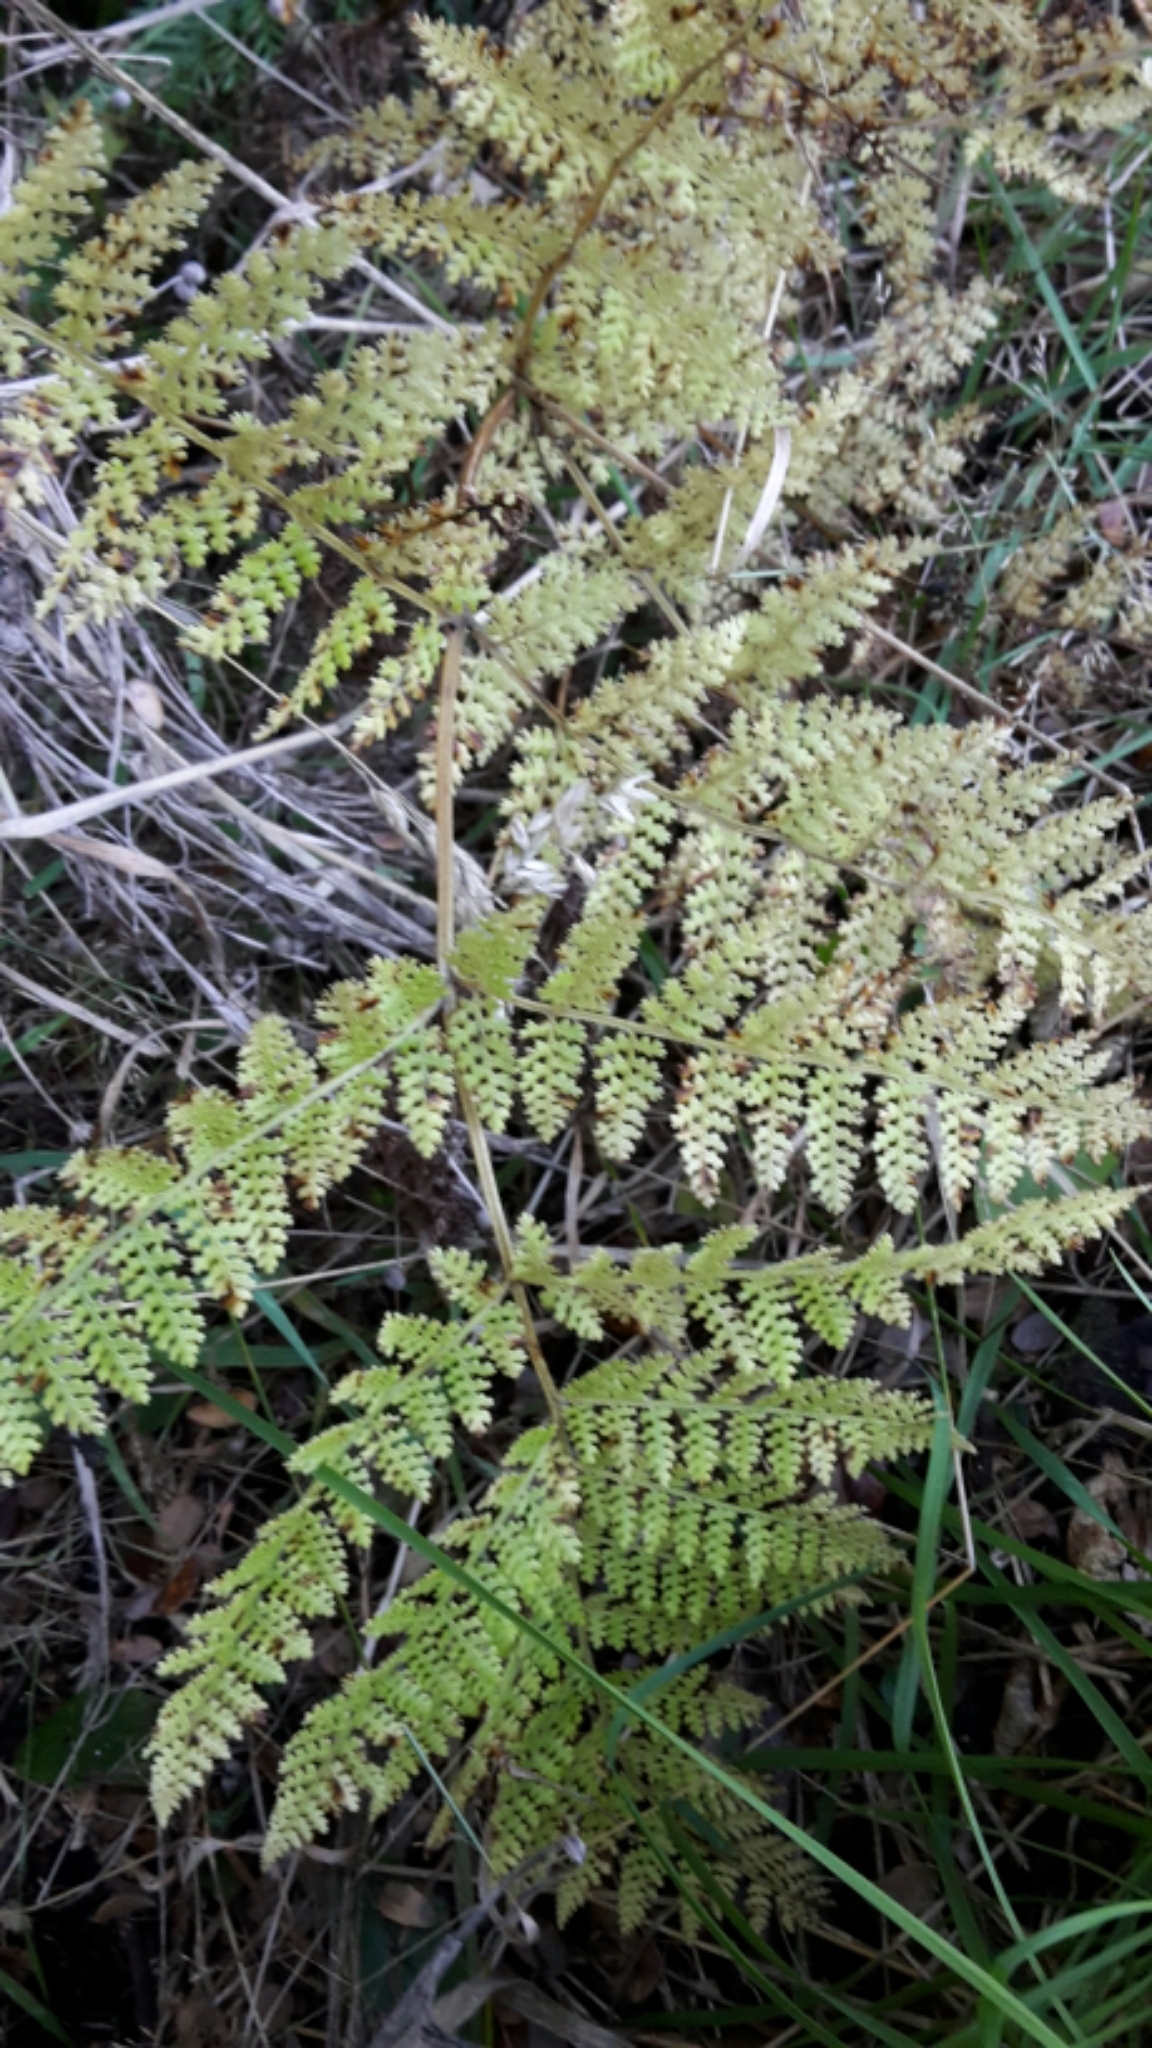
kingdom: Plantae
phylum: Tracheophyta
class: Polypodiopsida
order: Polypodiales
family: Dennstaedtiaceae
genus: Hypolepis
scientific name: Hypolepis millefolium
